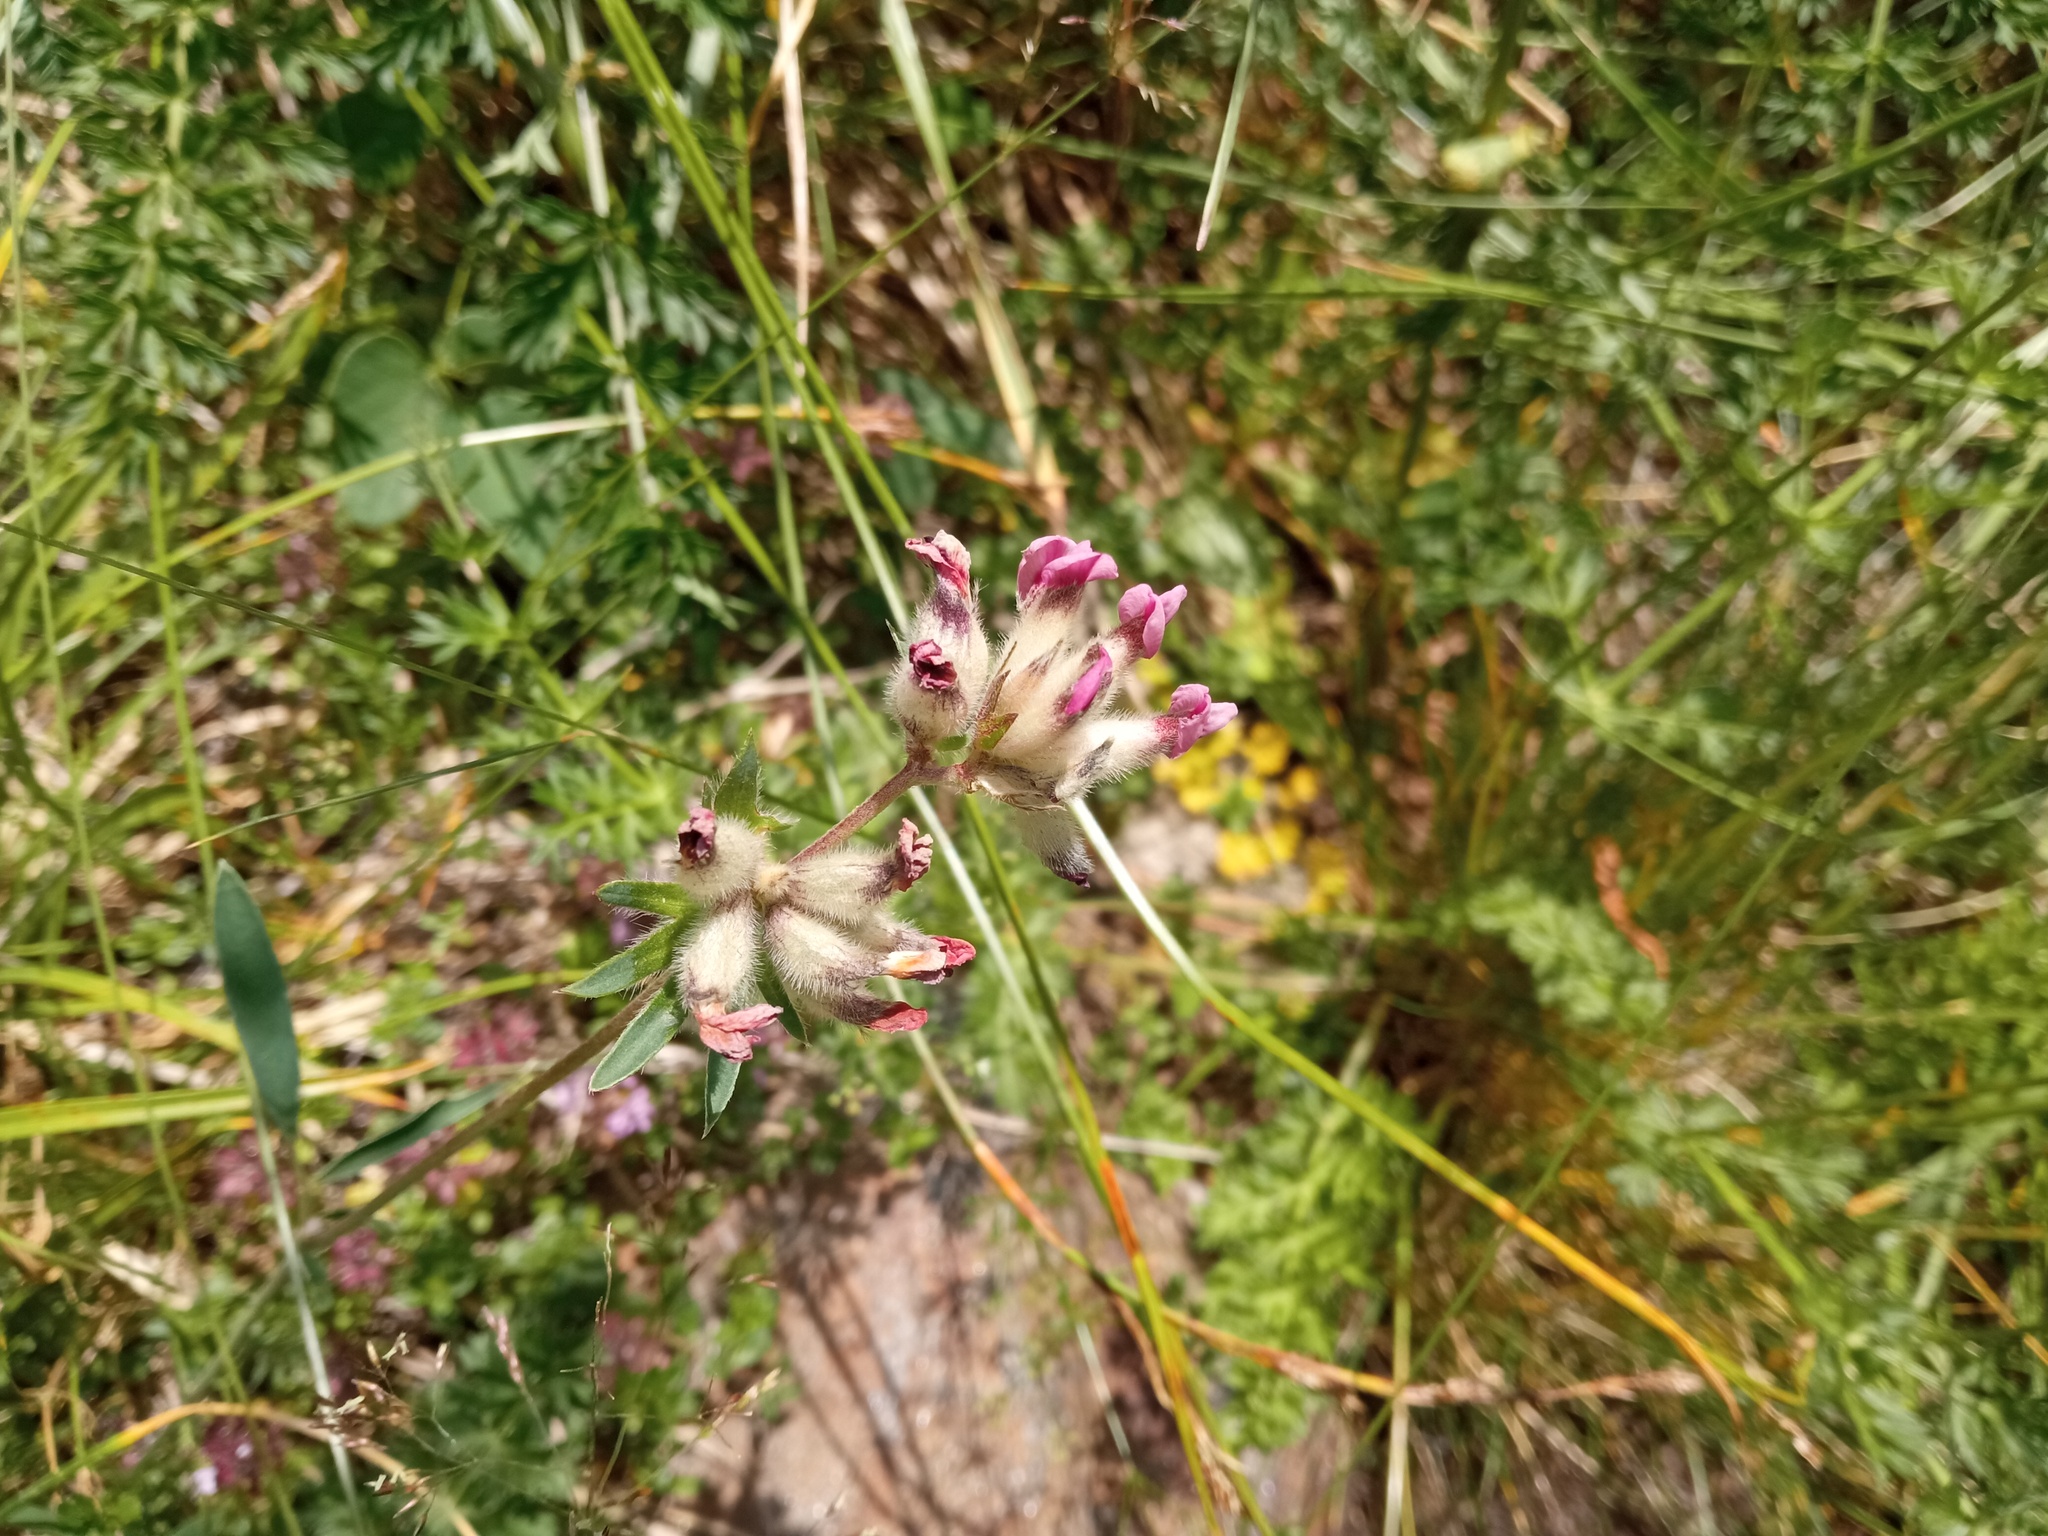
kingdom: Plantae
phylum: Tracheophyta
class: Magnoliopsida
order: Fabales
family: Fabaceae
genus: Anthyllis
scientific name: Anthyllis vulneraria
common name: Kidney vetch
